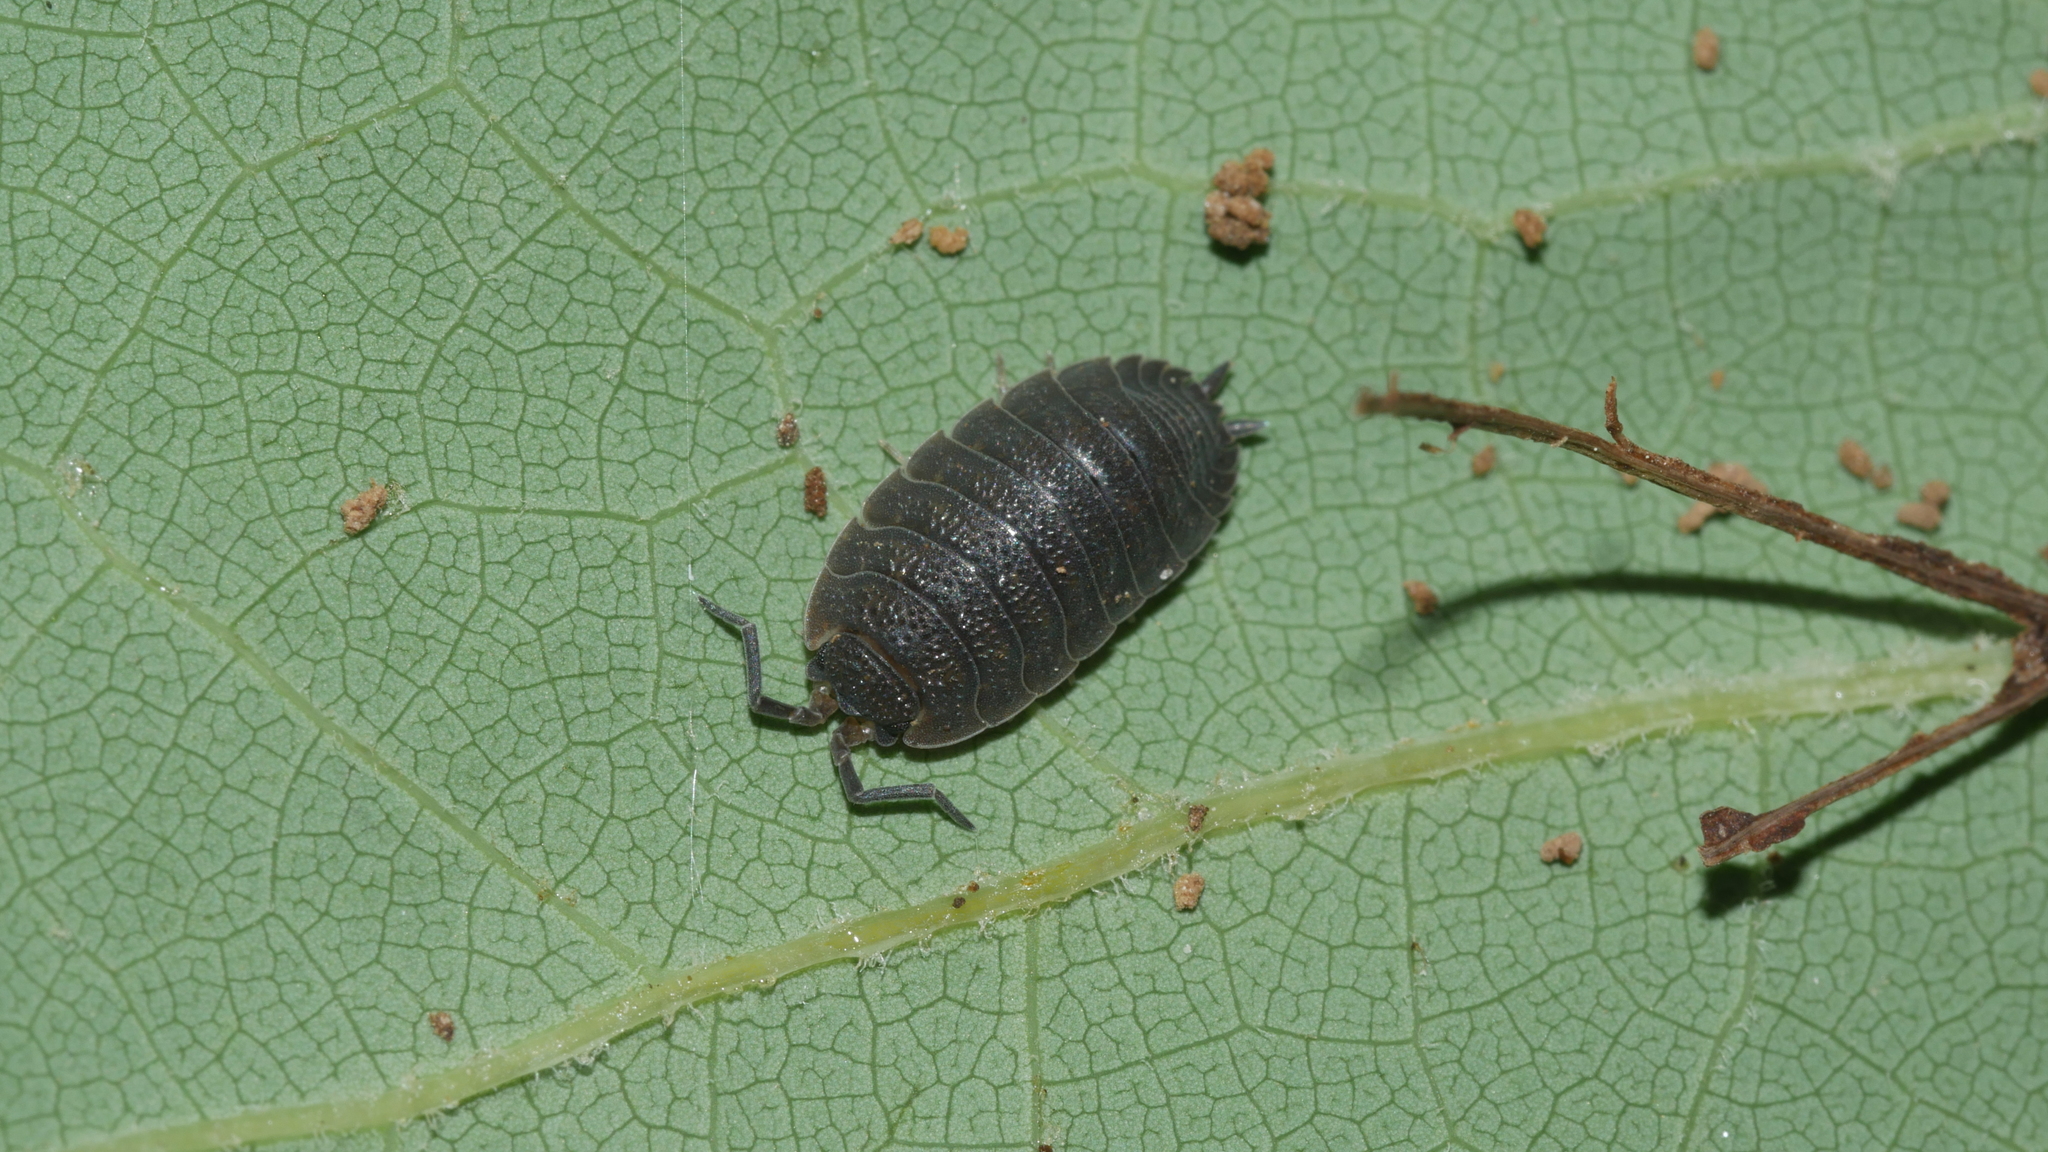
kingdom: Animalia
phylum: Arthropoda
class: Malacostraca
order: Isopoda
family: Porcellionidae
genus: Porcellio
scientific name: Porcellio scaber
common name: Common rough woodlouse
